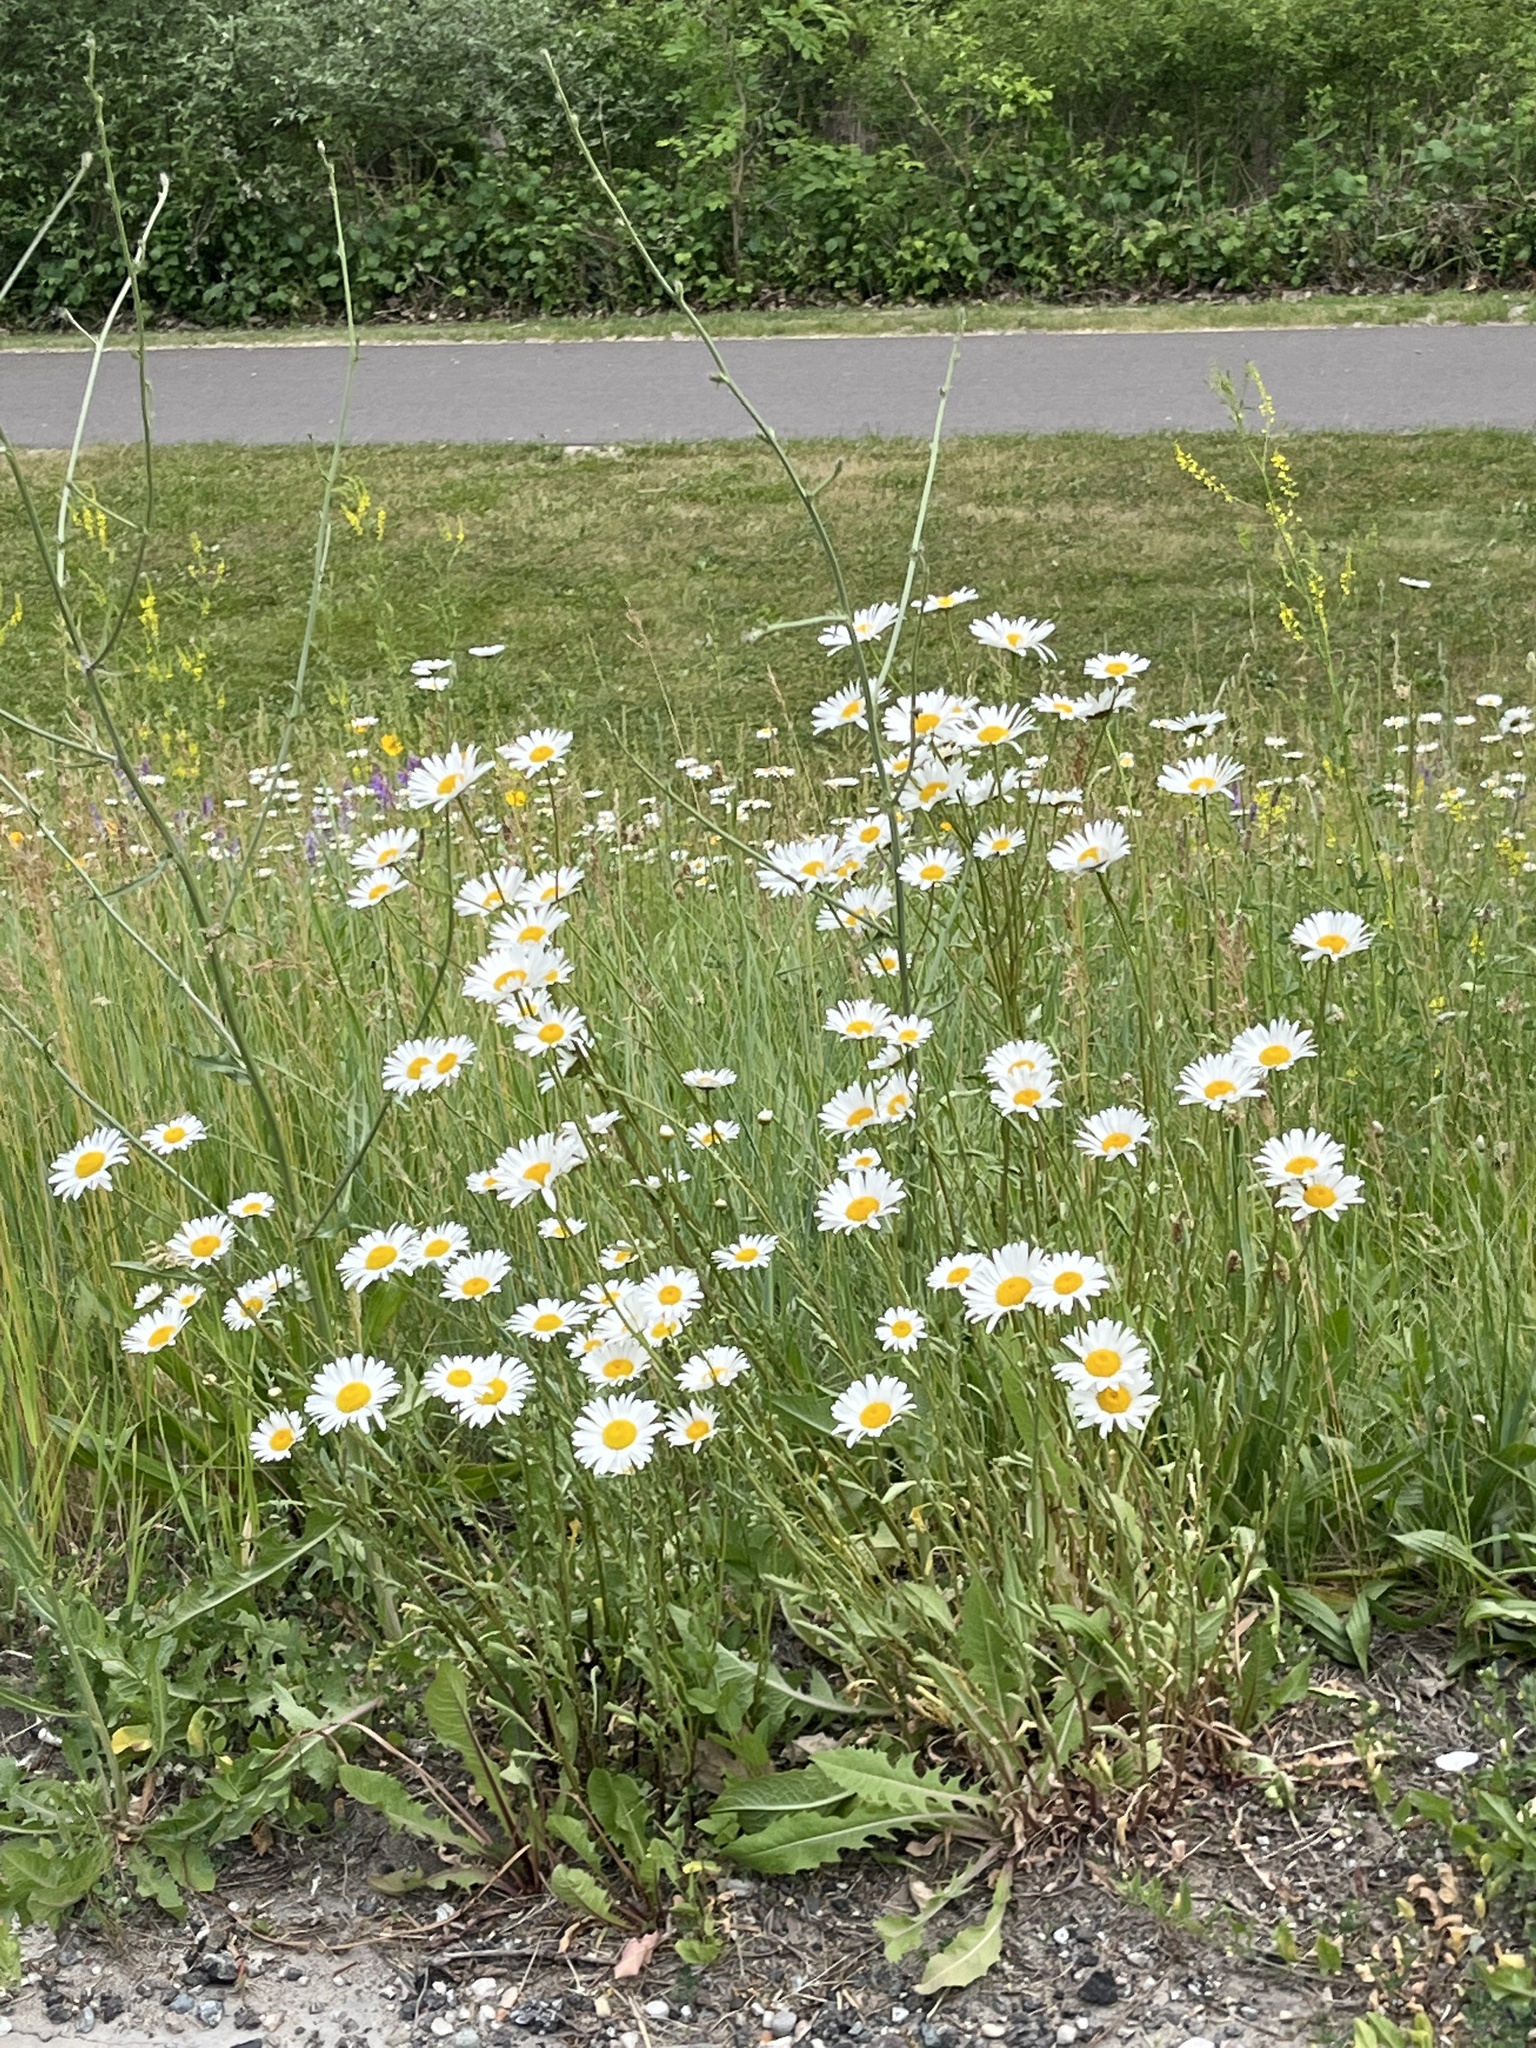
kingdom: Plantae
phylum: Tracheophyta
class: Magnoliopsida
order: Asterales
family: Asteraceae
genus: Leucanthemum
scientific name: Leucanthemum vulgare
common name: Oxeye daisy
